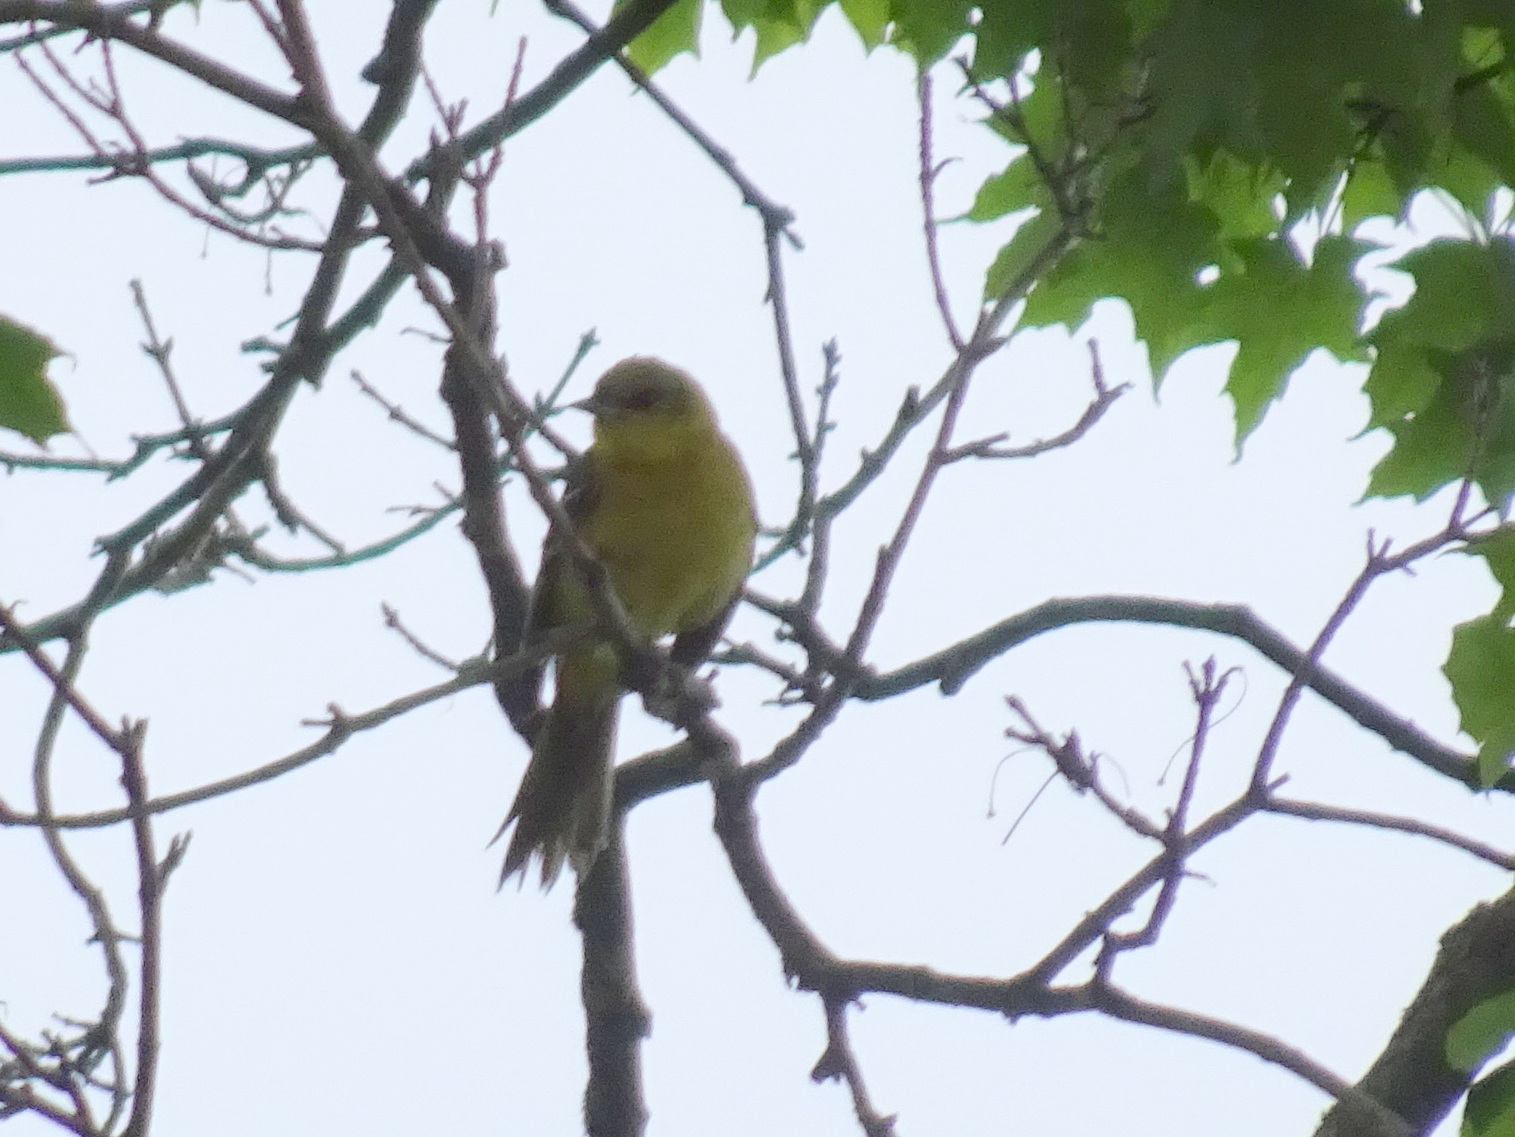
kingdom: Animalia
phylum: Chordata
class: Aves
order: Passeriformes
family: Icteridae
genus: Icterus
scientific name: Icterus spurius
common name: Orchard oriole
